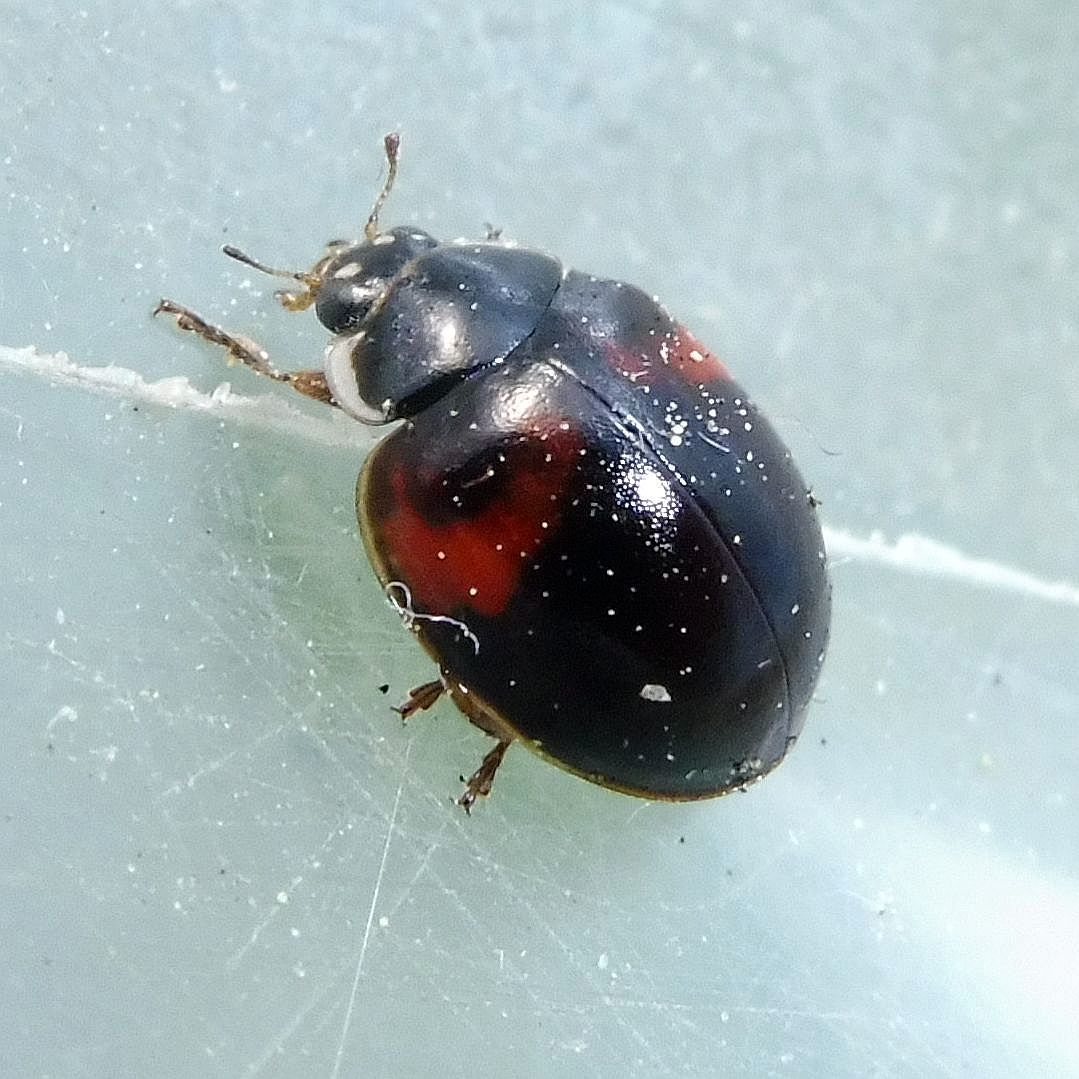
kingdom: Animalia
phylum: Arthropoda
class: Insecta
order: Coleoptera
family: Coccinellidae
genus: Adalia
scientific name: Adalia decempunctata
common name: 10-spot ladybird
